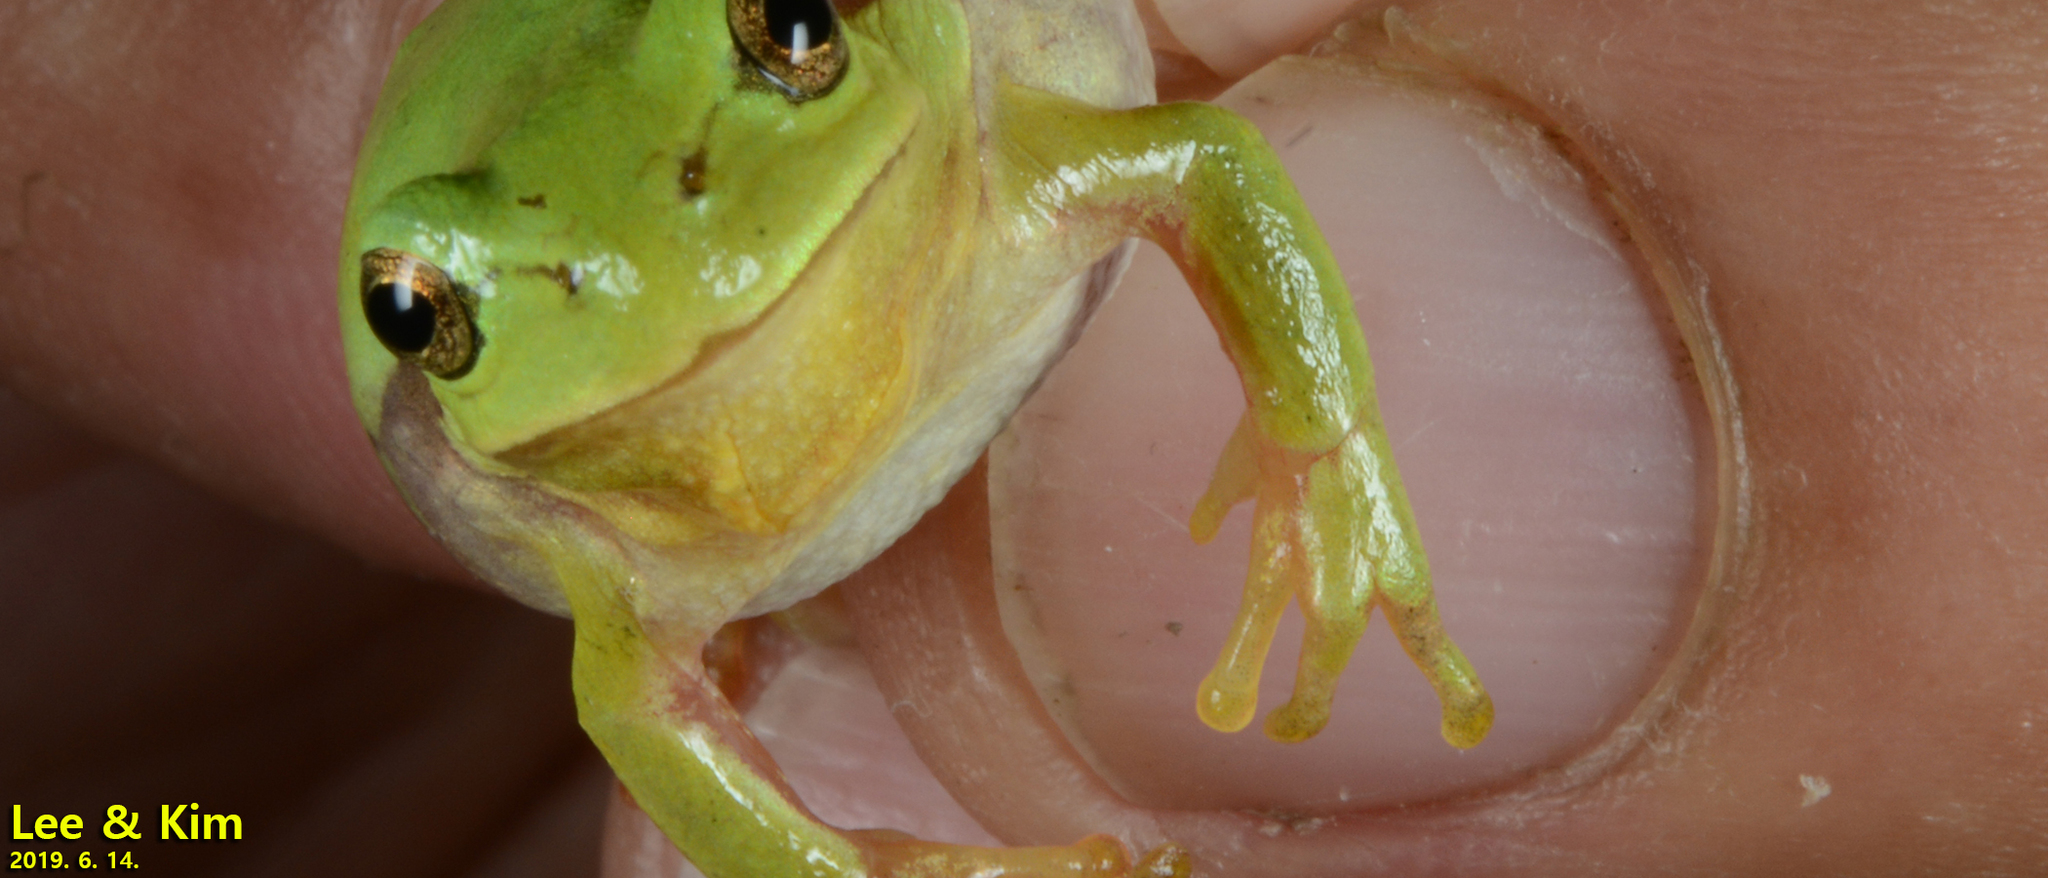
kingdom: Animalia
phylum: Chordata
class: Amphibia
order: Anura
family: Hylidae
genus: Dryophytes
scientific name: Dryophytes immaculatus
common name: North china treefrog
